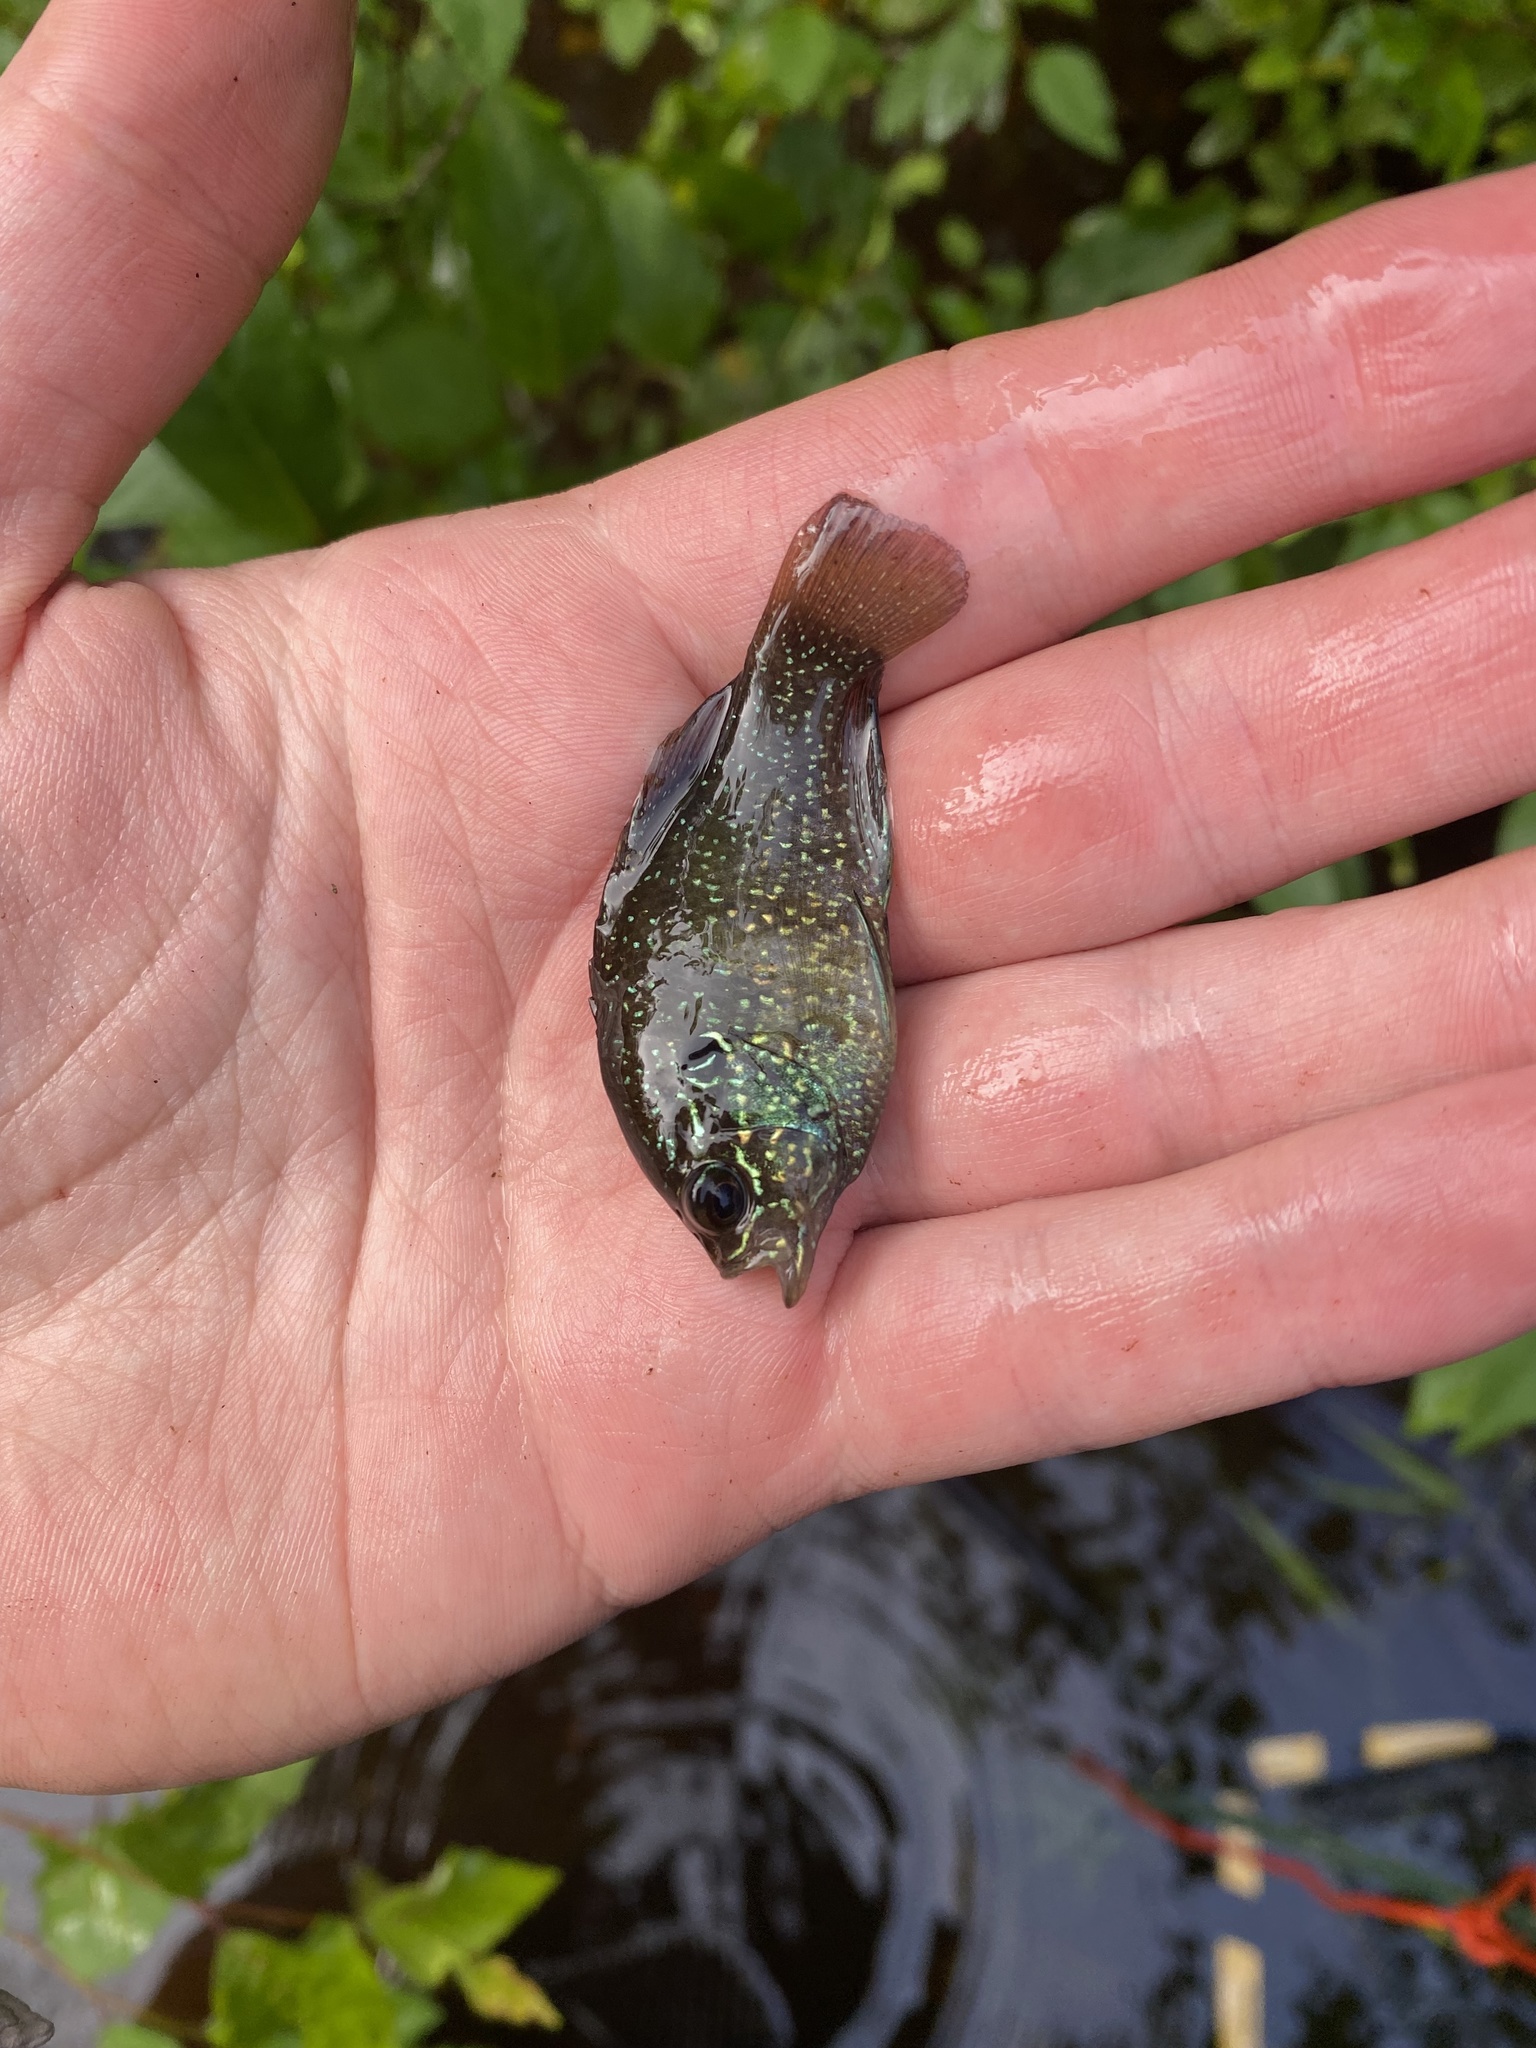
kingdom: Animalia
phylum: Chordata
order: Perciformes
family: Centrarchidae
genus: Enneacanthus
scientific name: Enneacanthus obesus
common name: Banded sunfish
